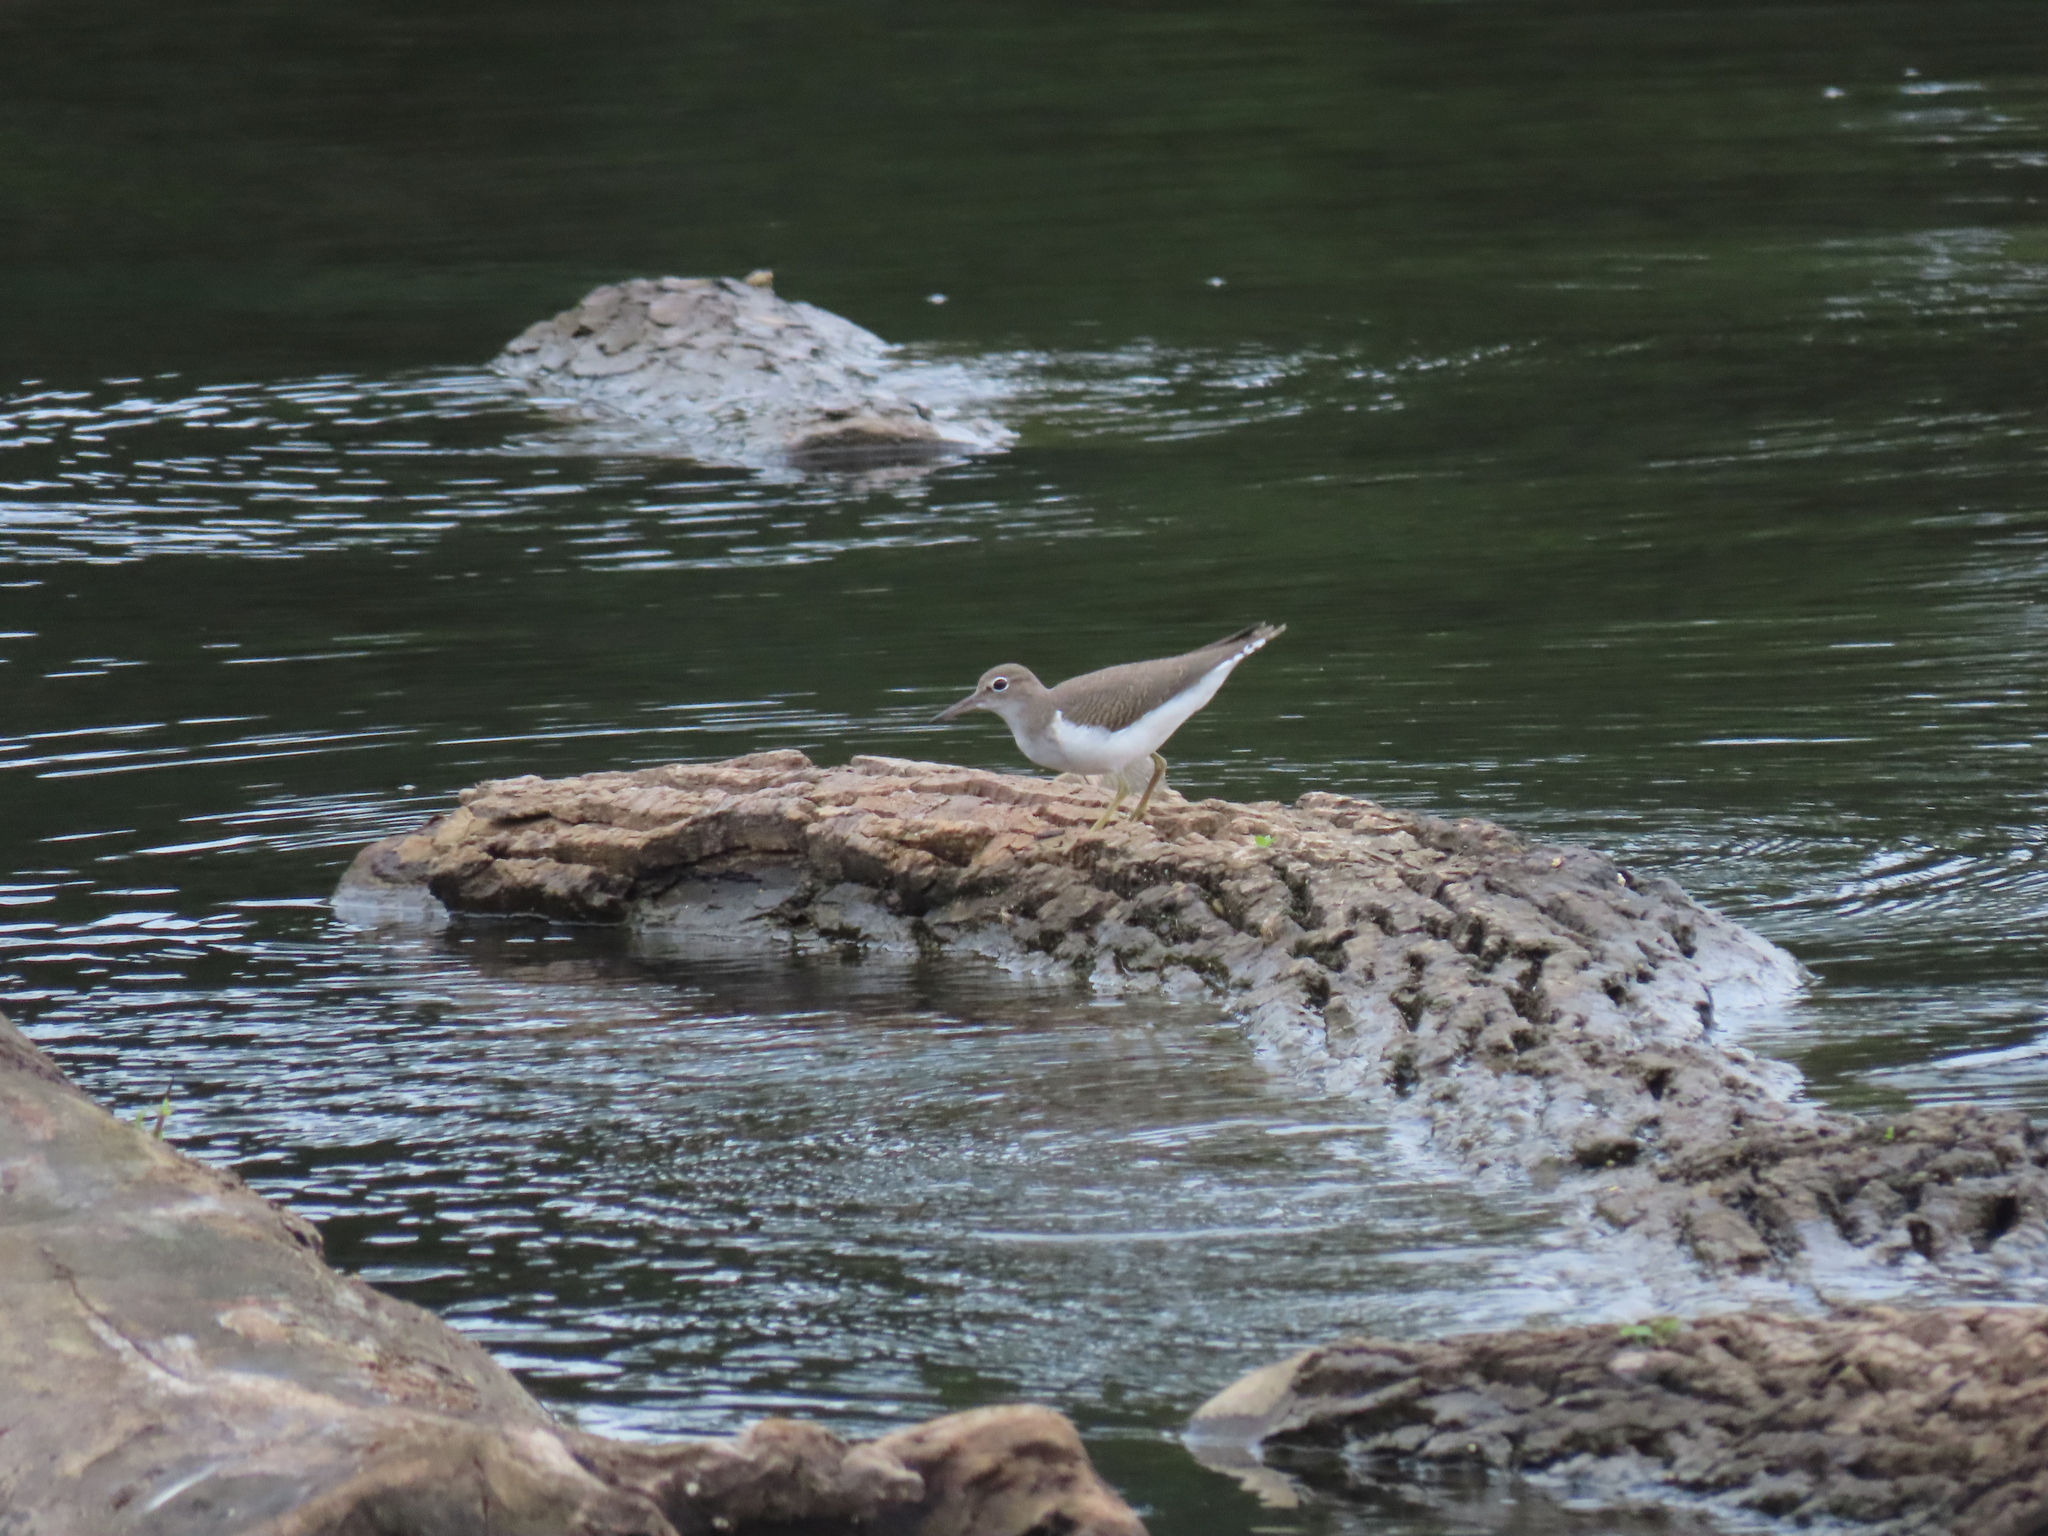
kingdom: Animalia
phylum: Chordata
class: Aves
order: Charadriiformes
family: Scolopacidae
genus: Actitis
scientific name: Actitis macularius
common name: Spotted sandpiper
